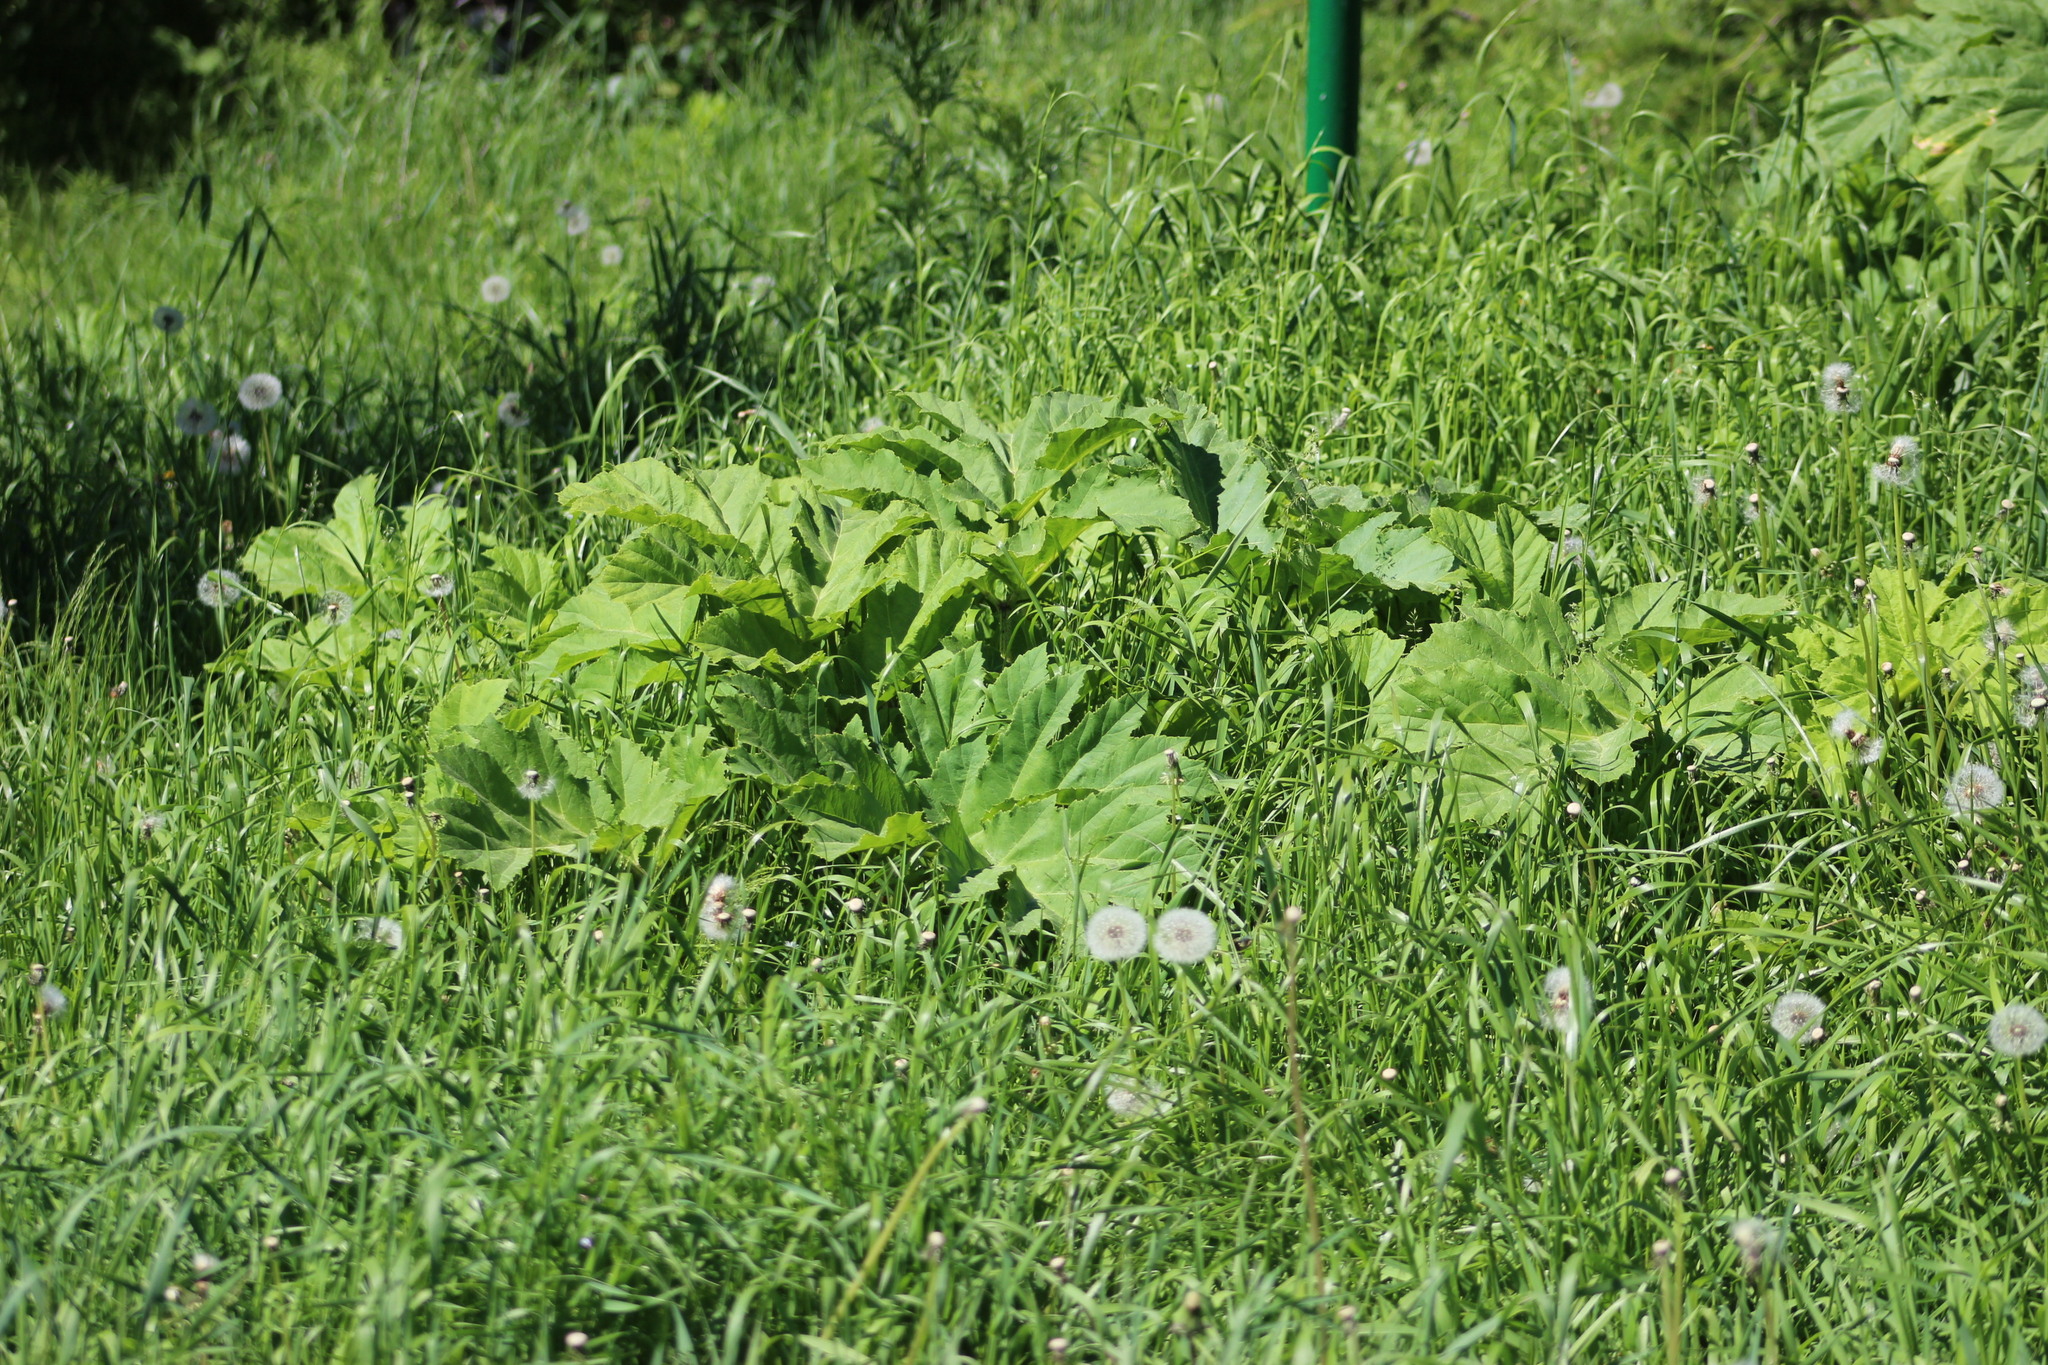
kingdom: Plantae
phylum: Tracheophyta
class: Magnoliopsida
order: Apiales
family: Apiaceae
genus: Heracleum
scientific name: Heracleum sosnowskyi
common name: Sosnowsky's hogweed
